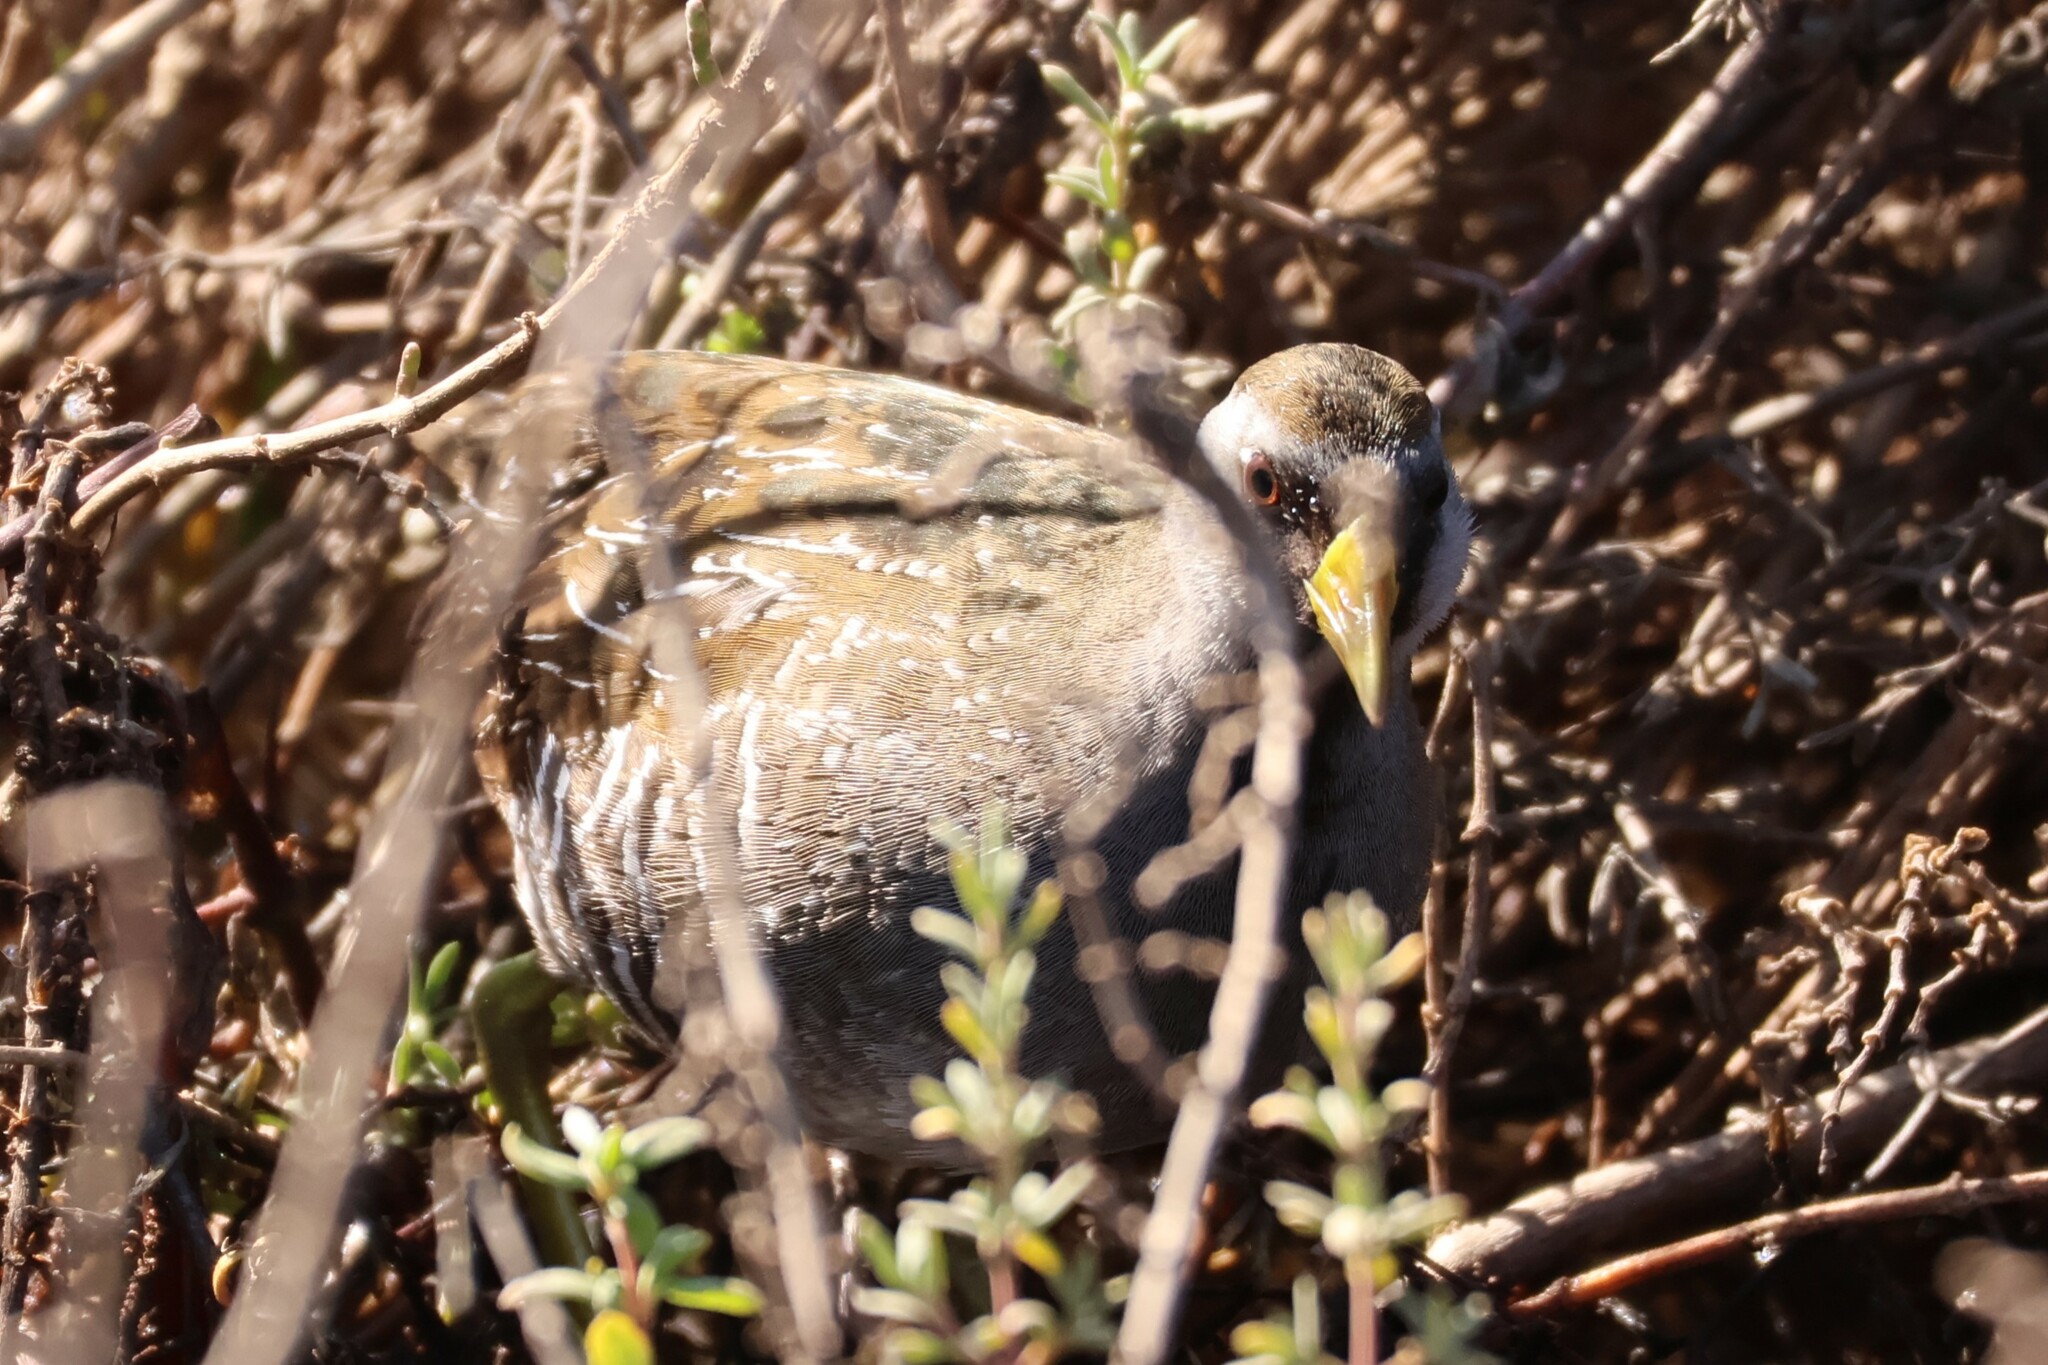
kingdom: Animalia
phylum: Chordata
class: Aves
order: Gruiformes
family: Rallidae
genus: Porzana
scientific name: Porzana carolina
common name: Sora
